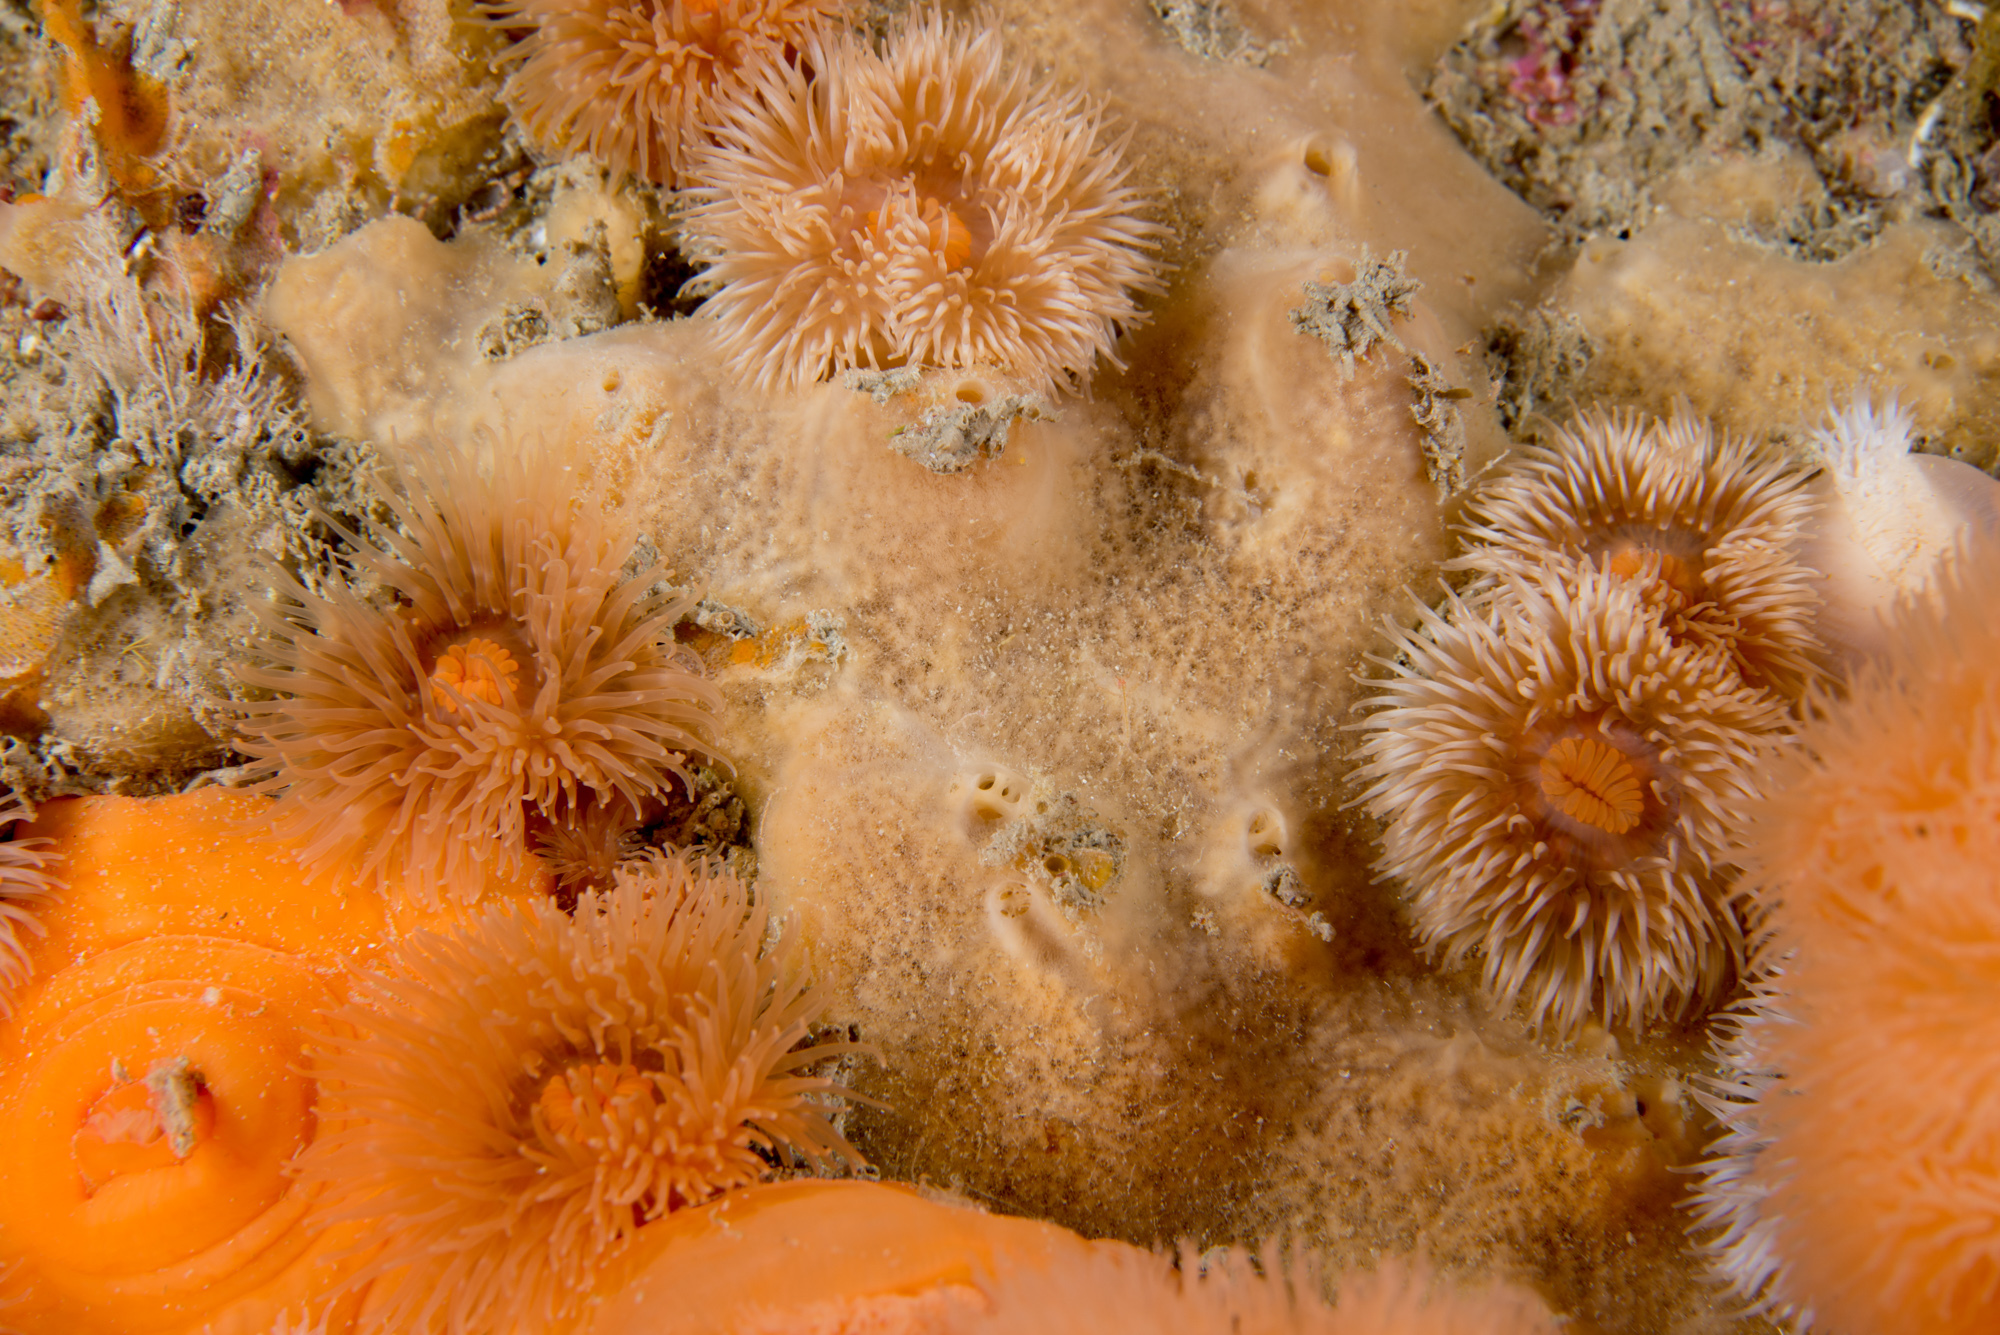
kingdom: Animalia
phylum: Cnidaria
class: Anthozoa
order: Actiniaria
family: Metridiidae
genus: Metridium
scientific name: Metridium senile
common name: Clonal plumose anemone
